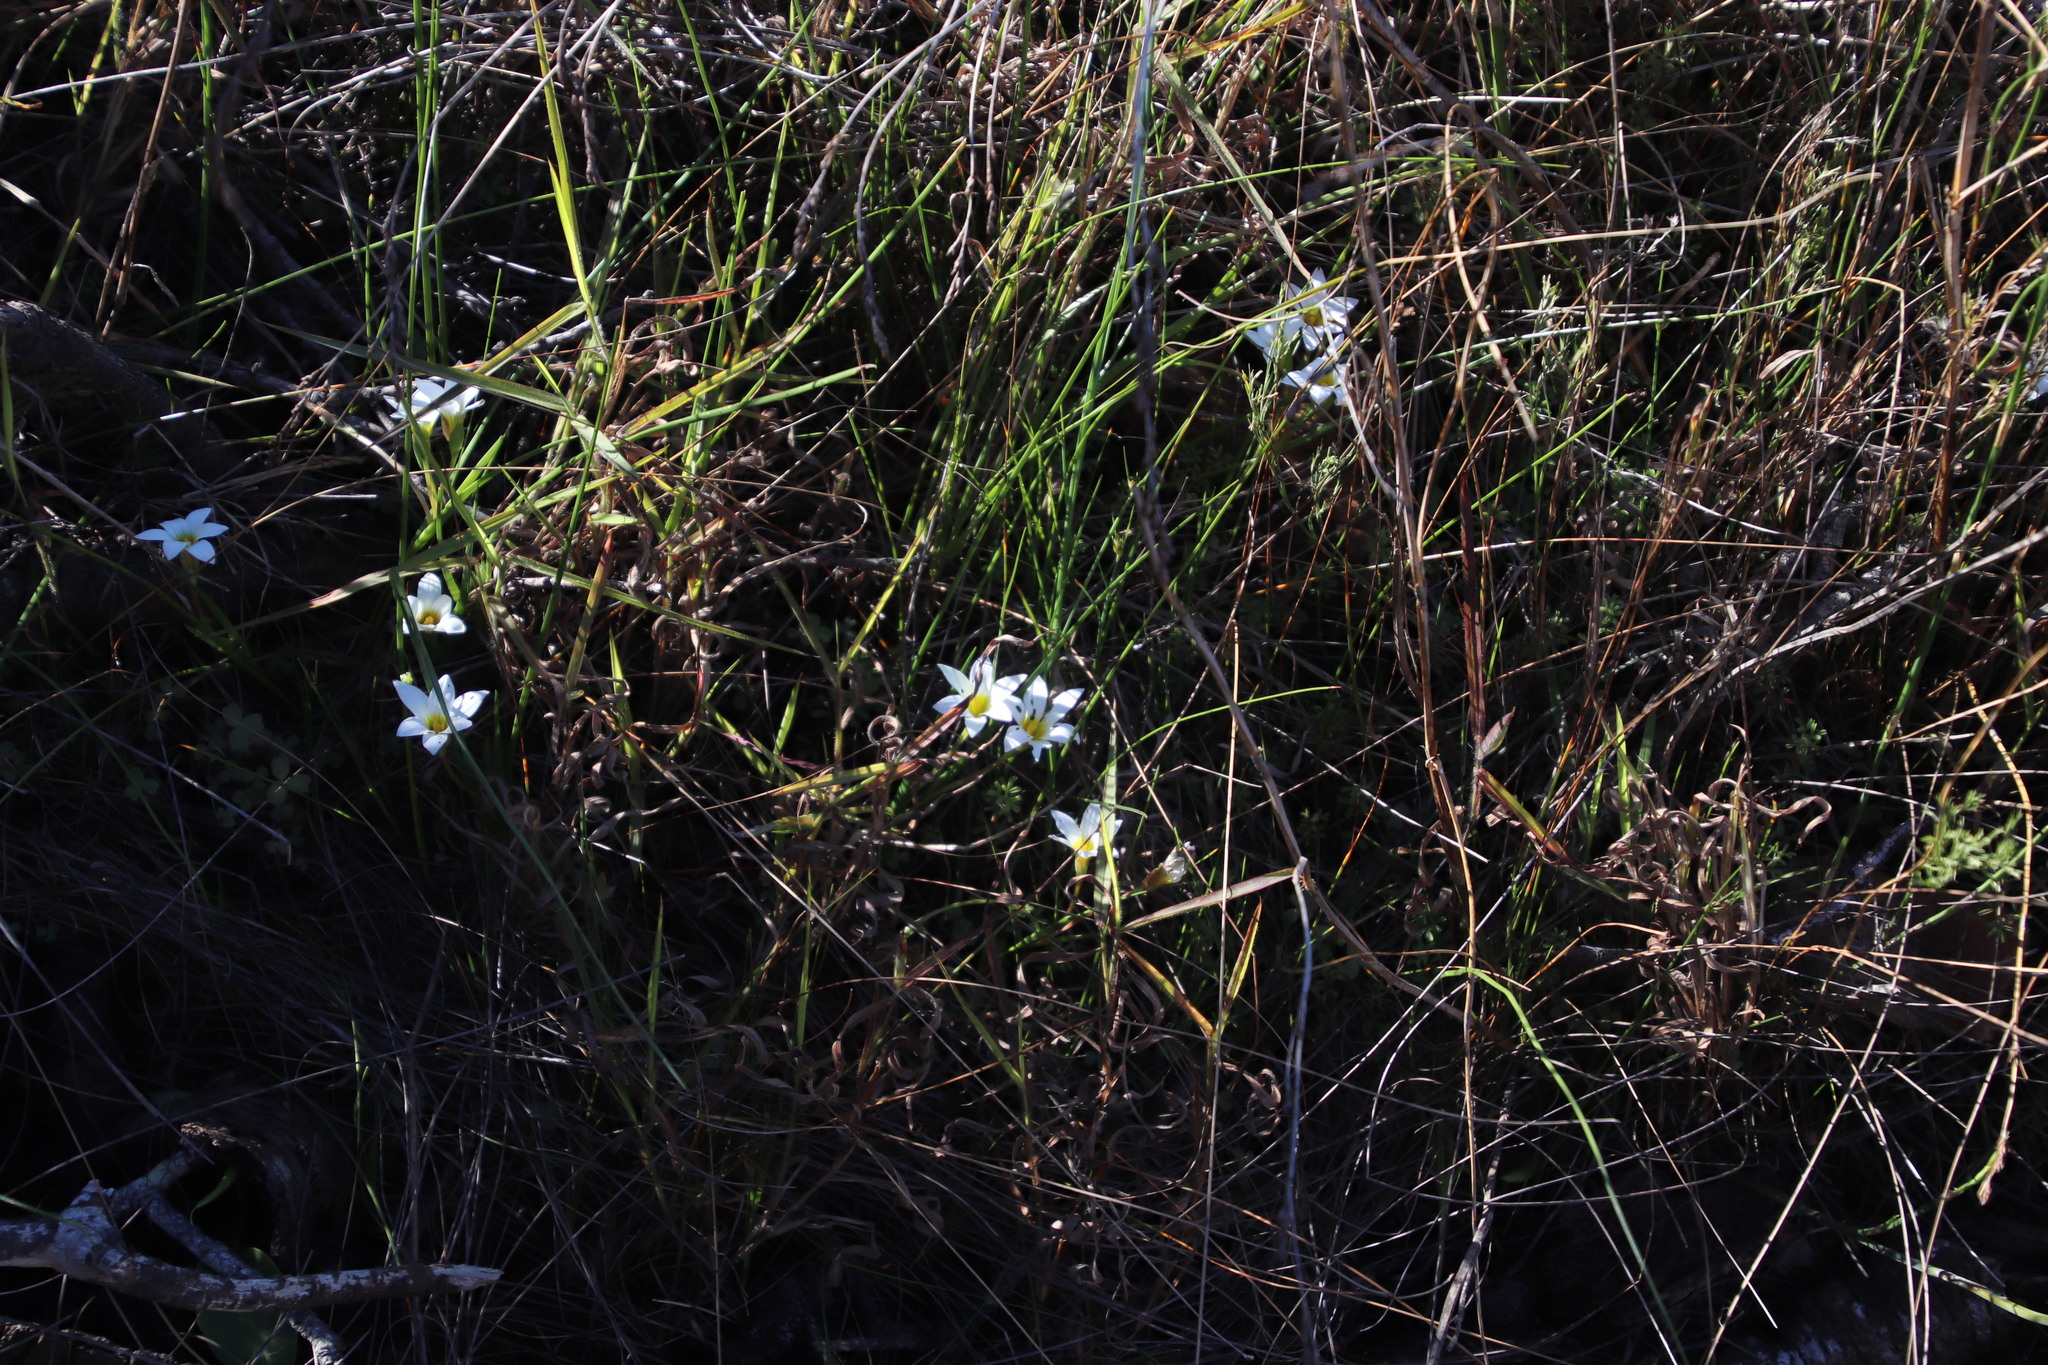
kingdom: Plantae
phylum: Tracheophyta
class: Liliopsida
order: Asparagales
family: Iridaceae
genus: Romulea
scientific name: Romulea flava
